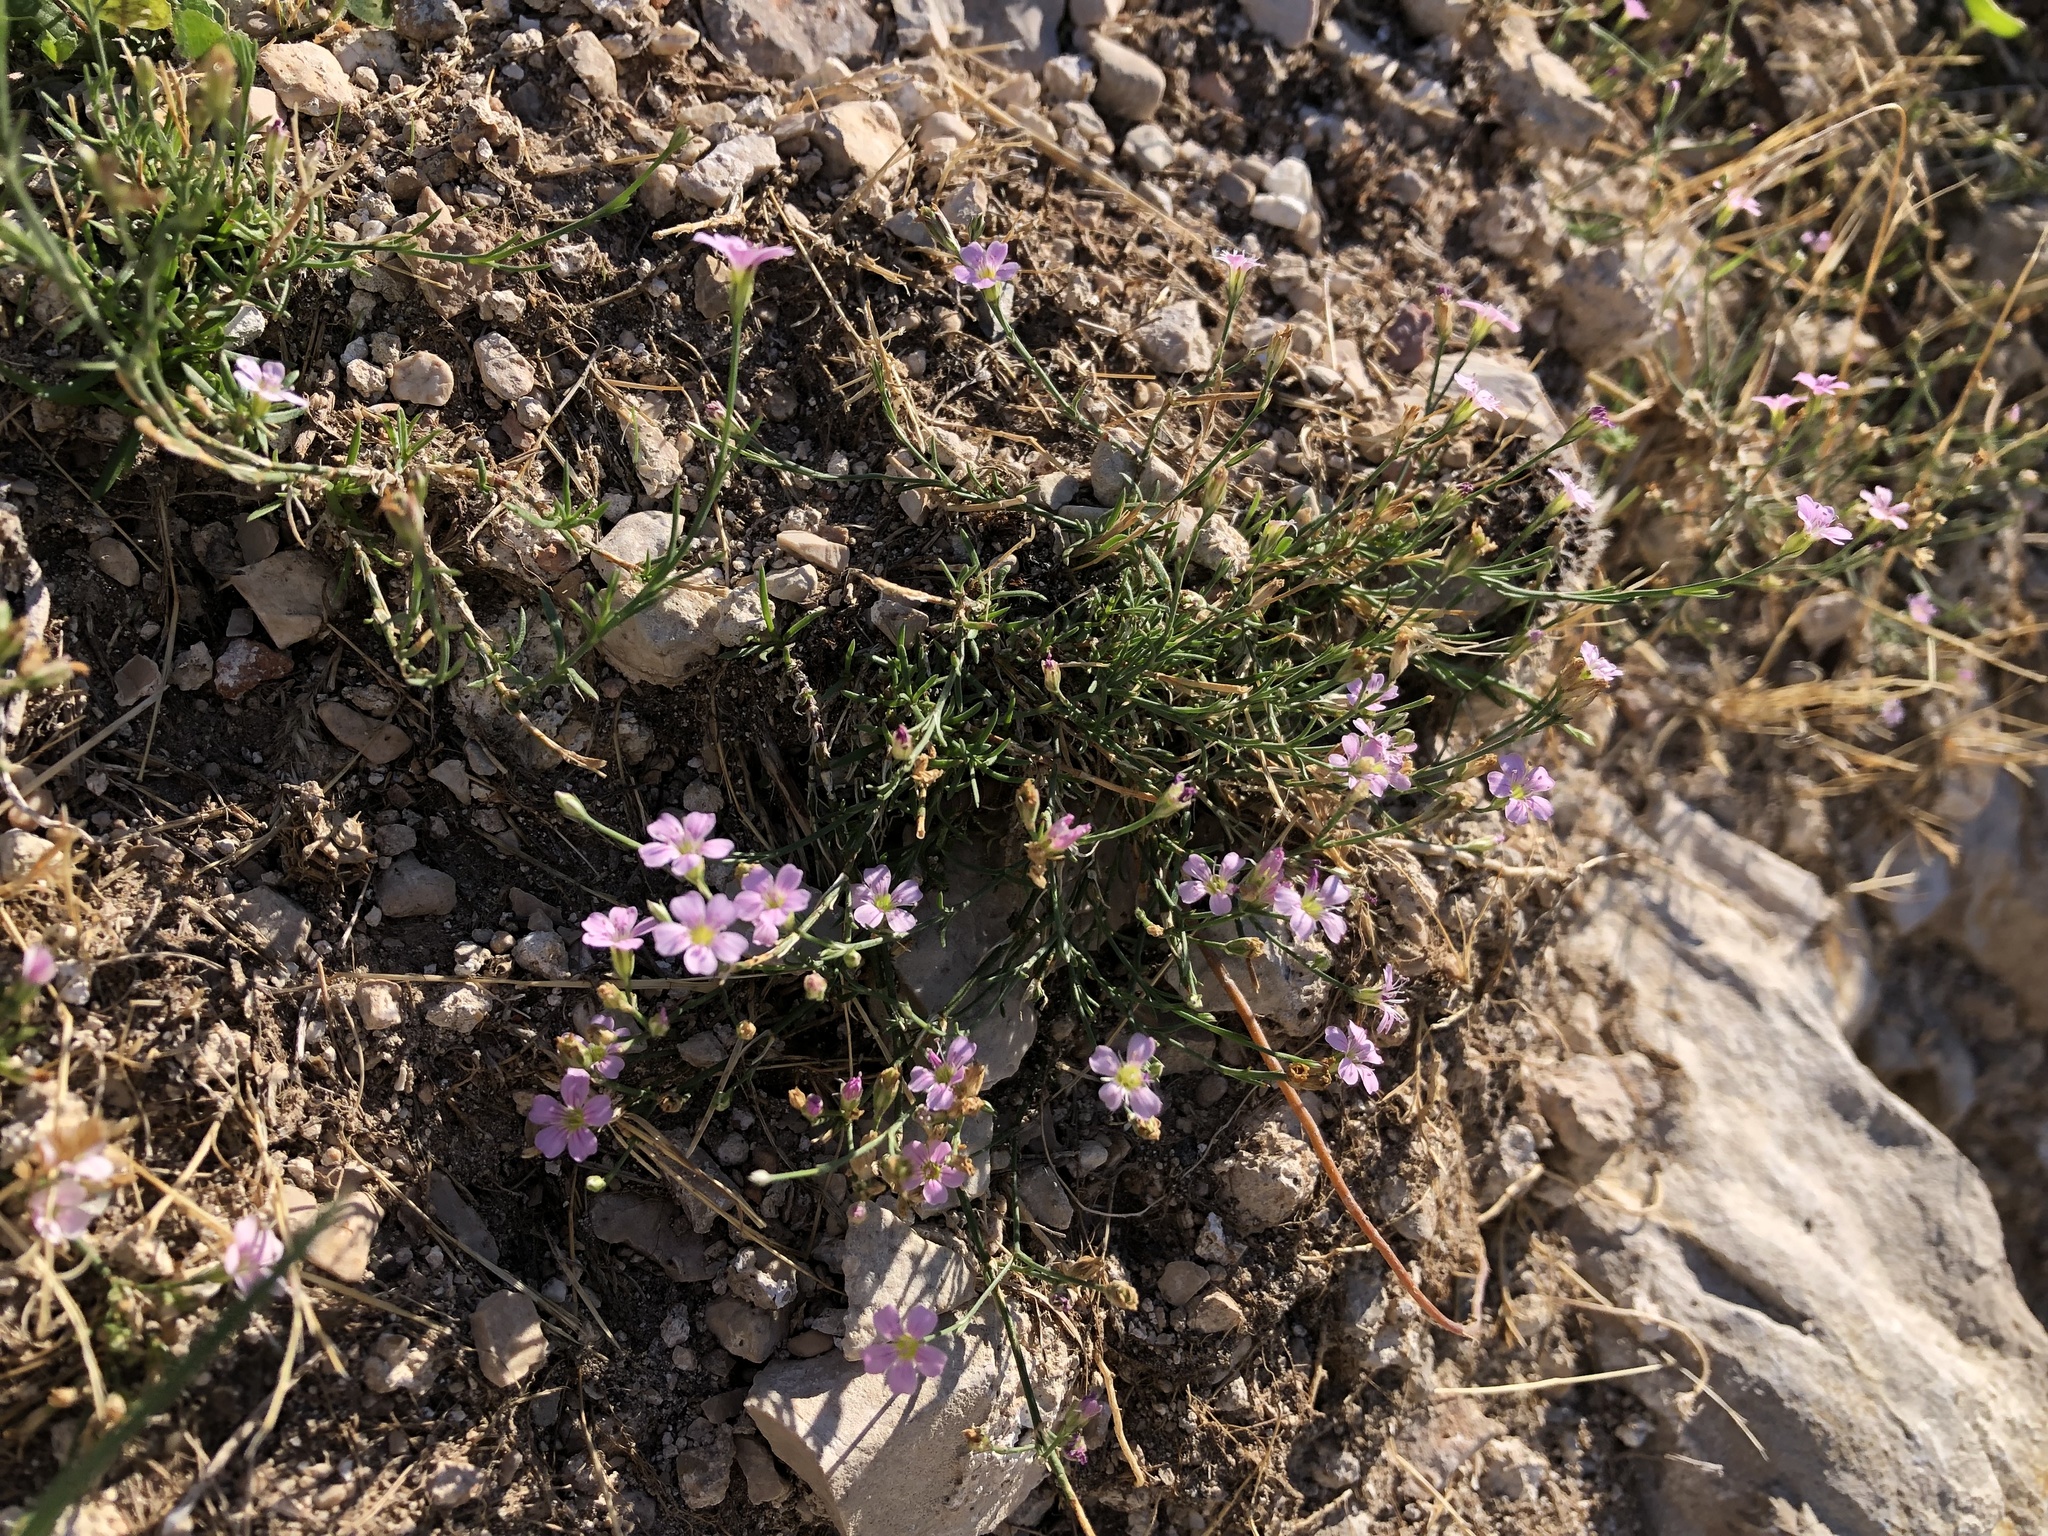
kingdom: Plantae
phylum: Tracheophyta
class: Magnoliopsida
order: Caryophyllales
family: Caryophyllaceae
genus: Petrorhagia
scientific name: Petrorhagia saxifraga
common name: Tunicflower
